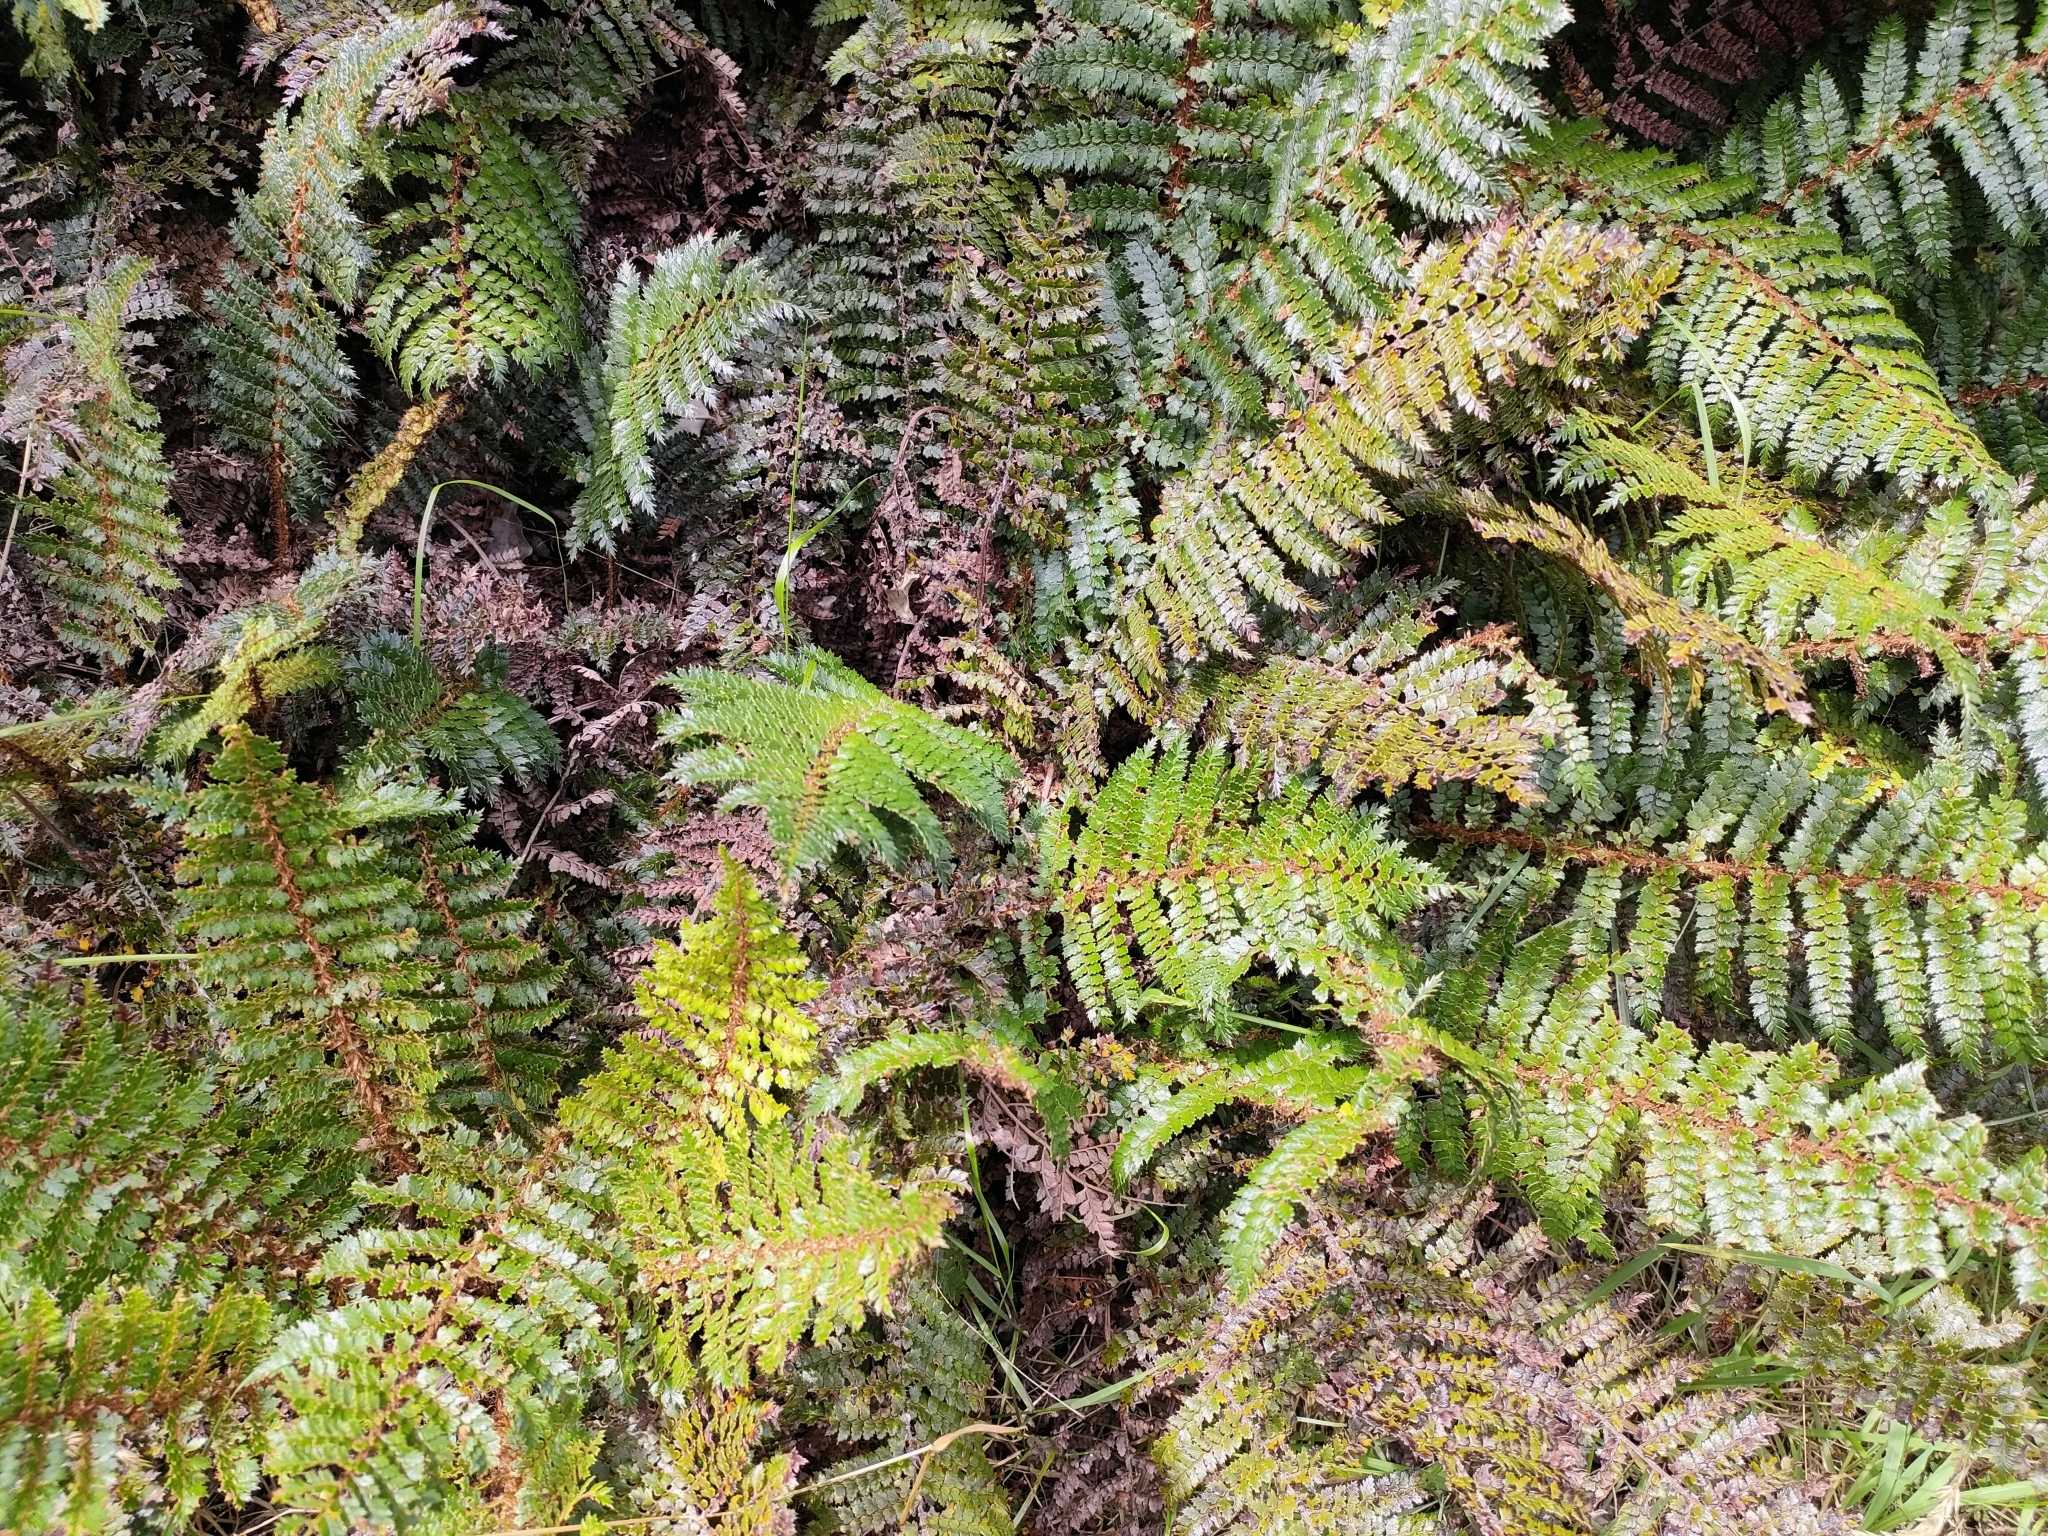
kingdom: Plantae
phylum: Tracheophyta
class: Polypodiopsida
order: Polypodiales
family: Dryopteridaceae
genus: Polystichum
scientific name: Polystichum vestitum
